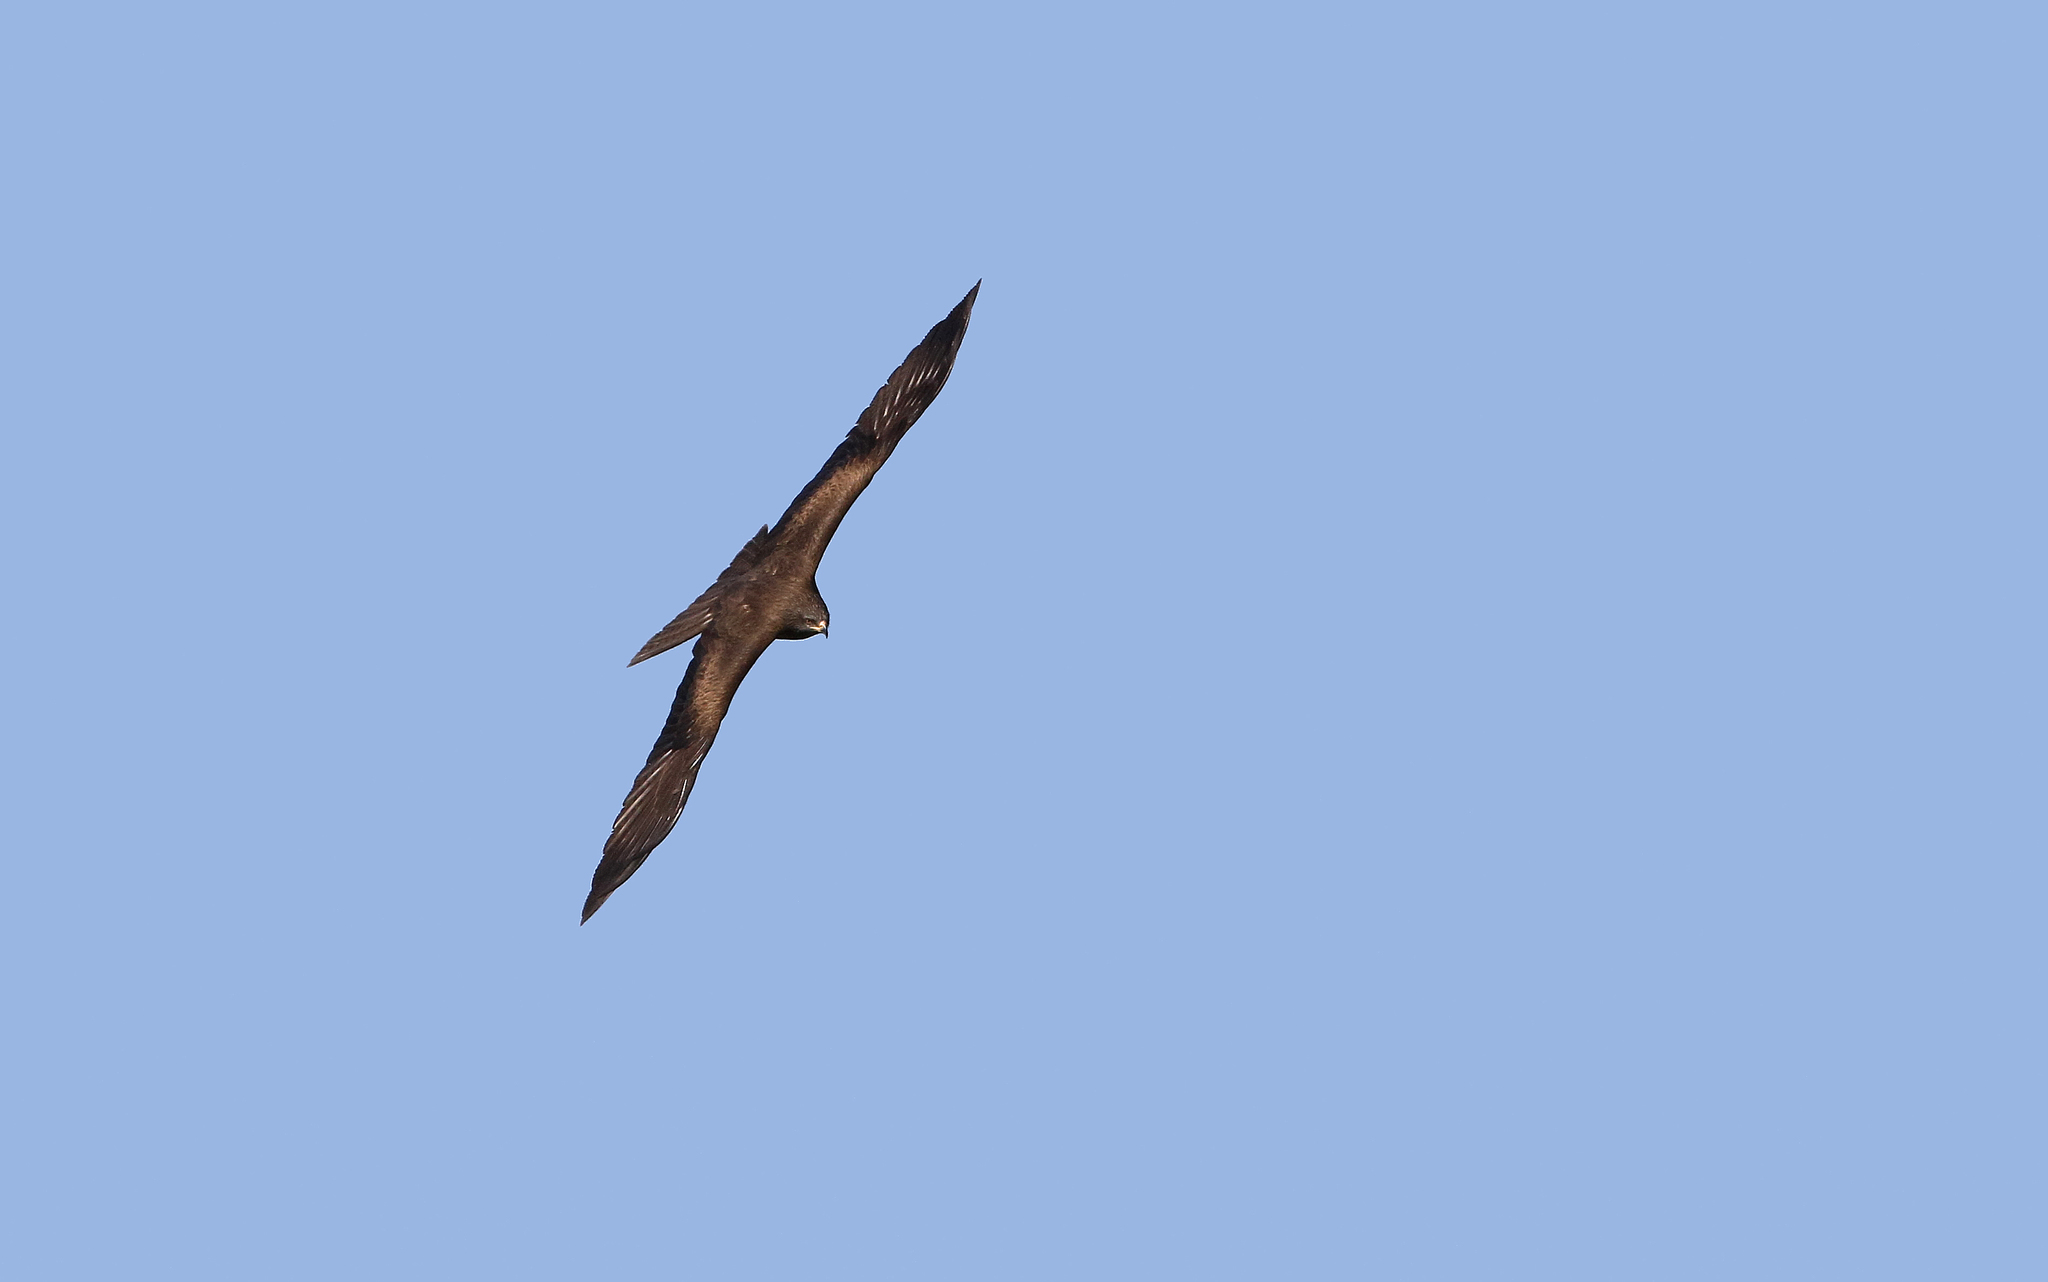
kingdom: Animalia
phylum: Chordata
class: Aves
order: Accipitriformes
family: Accipitridae
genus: Milvus
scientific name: Milvus migrans
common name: Black kite
